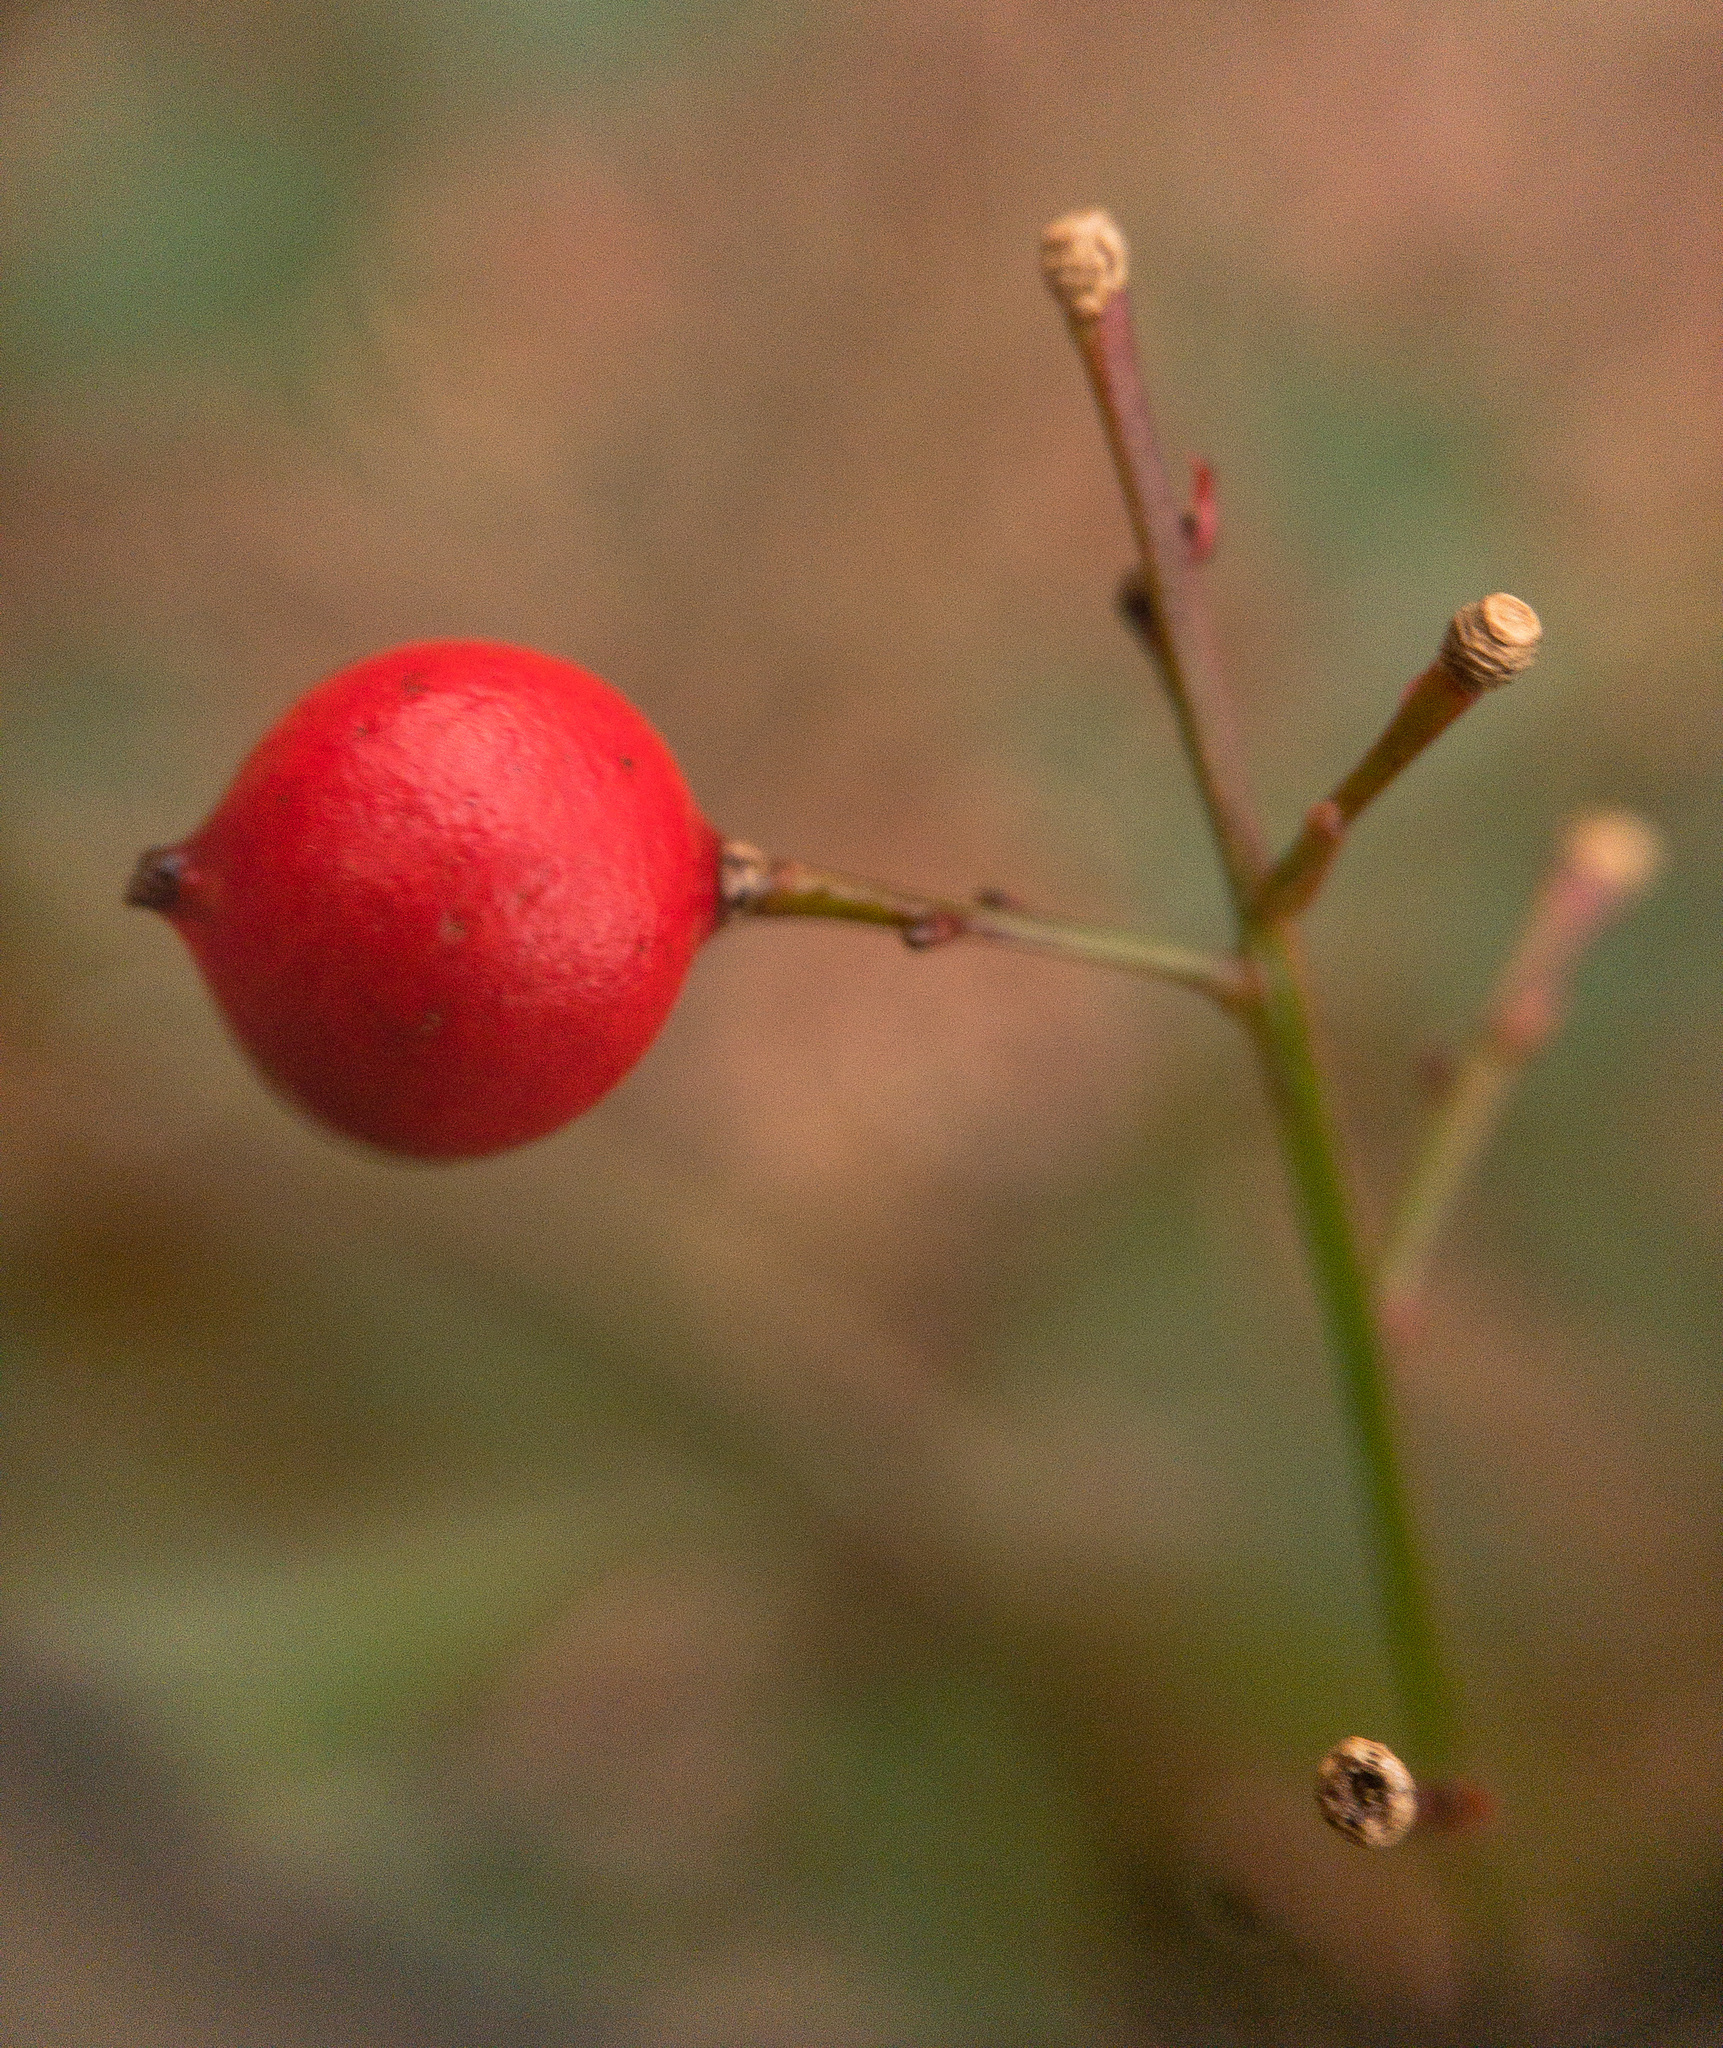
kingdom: Plantae
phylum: Tracheophyta
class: Magnoliopsida
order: Ranunculales
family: Berberidaceae
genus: Nandina
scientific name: Nandina domestica
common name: Sacred bamboo
